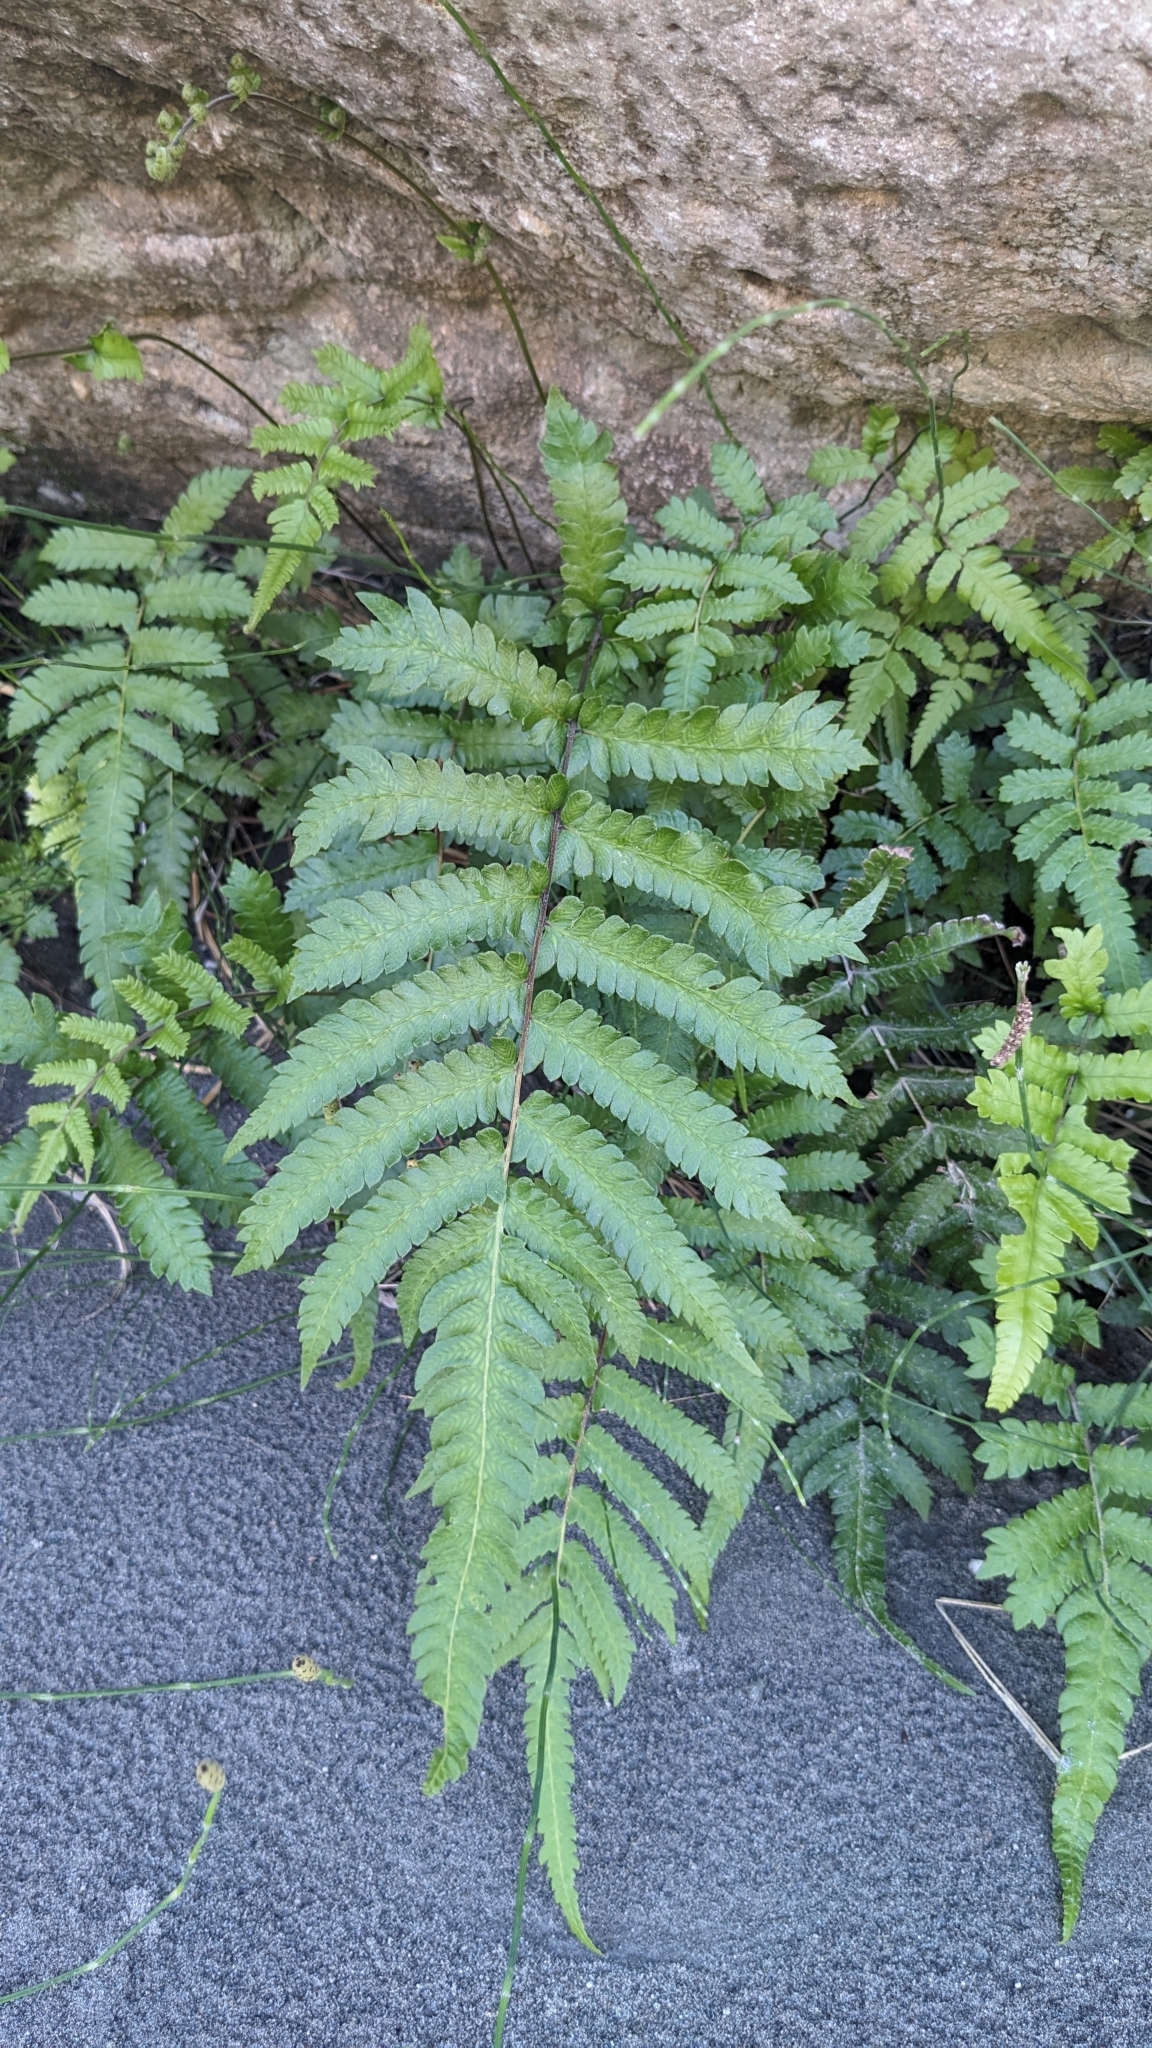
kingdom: Plantae
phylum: Tracheophyta
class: Polypodiopsida
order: Polypodiales
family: Thelypteridaceae
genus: Christella
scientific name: Christella ensifera
